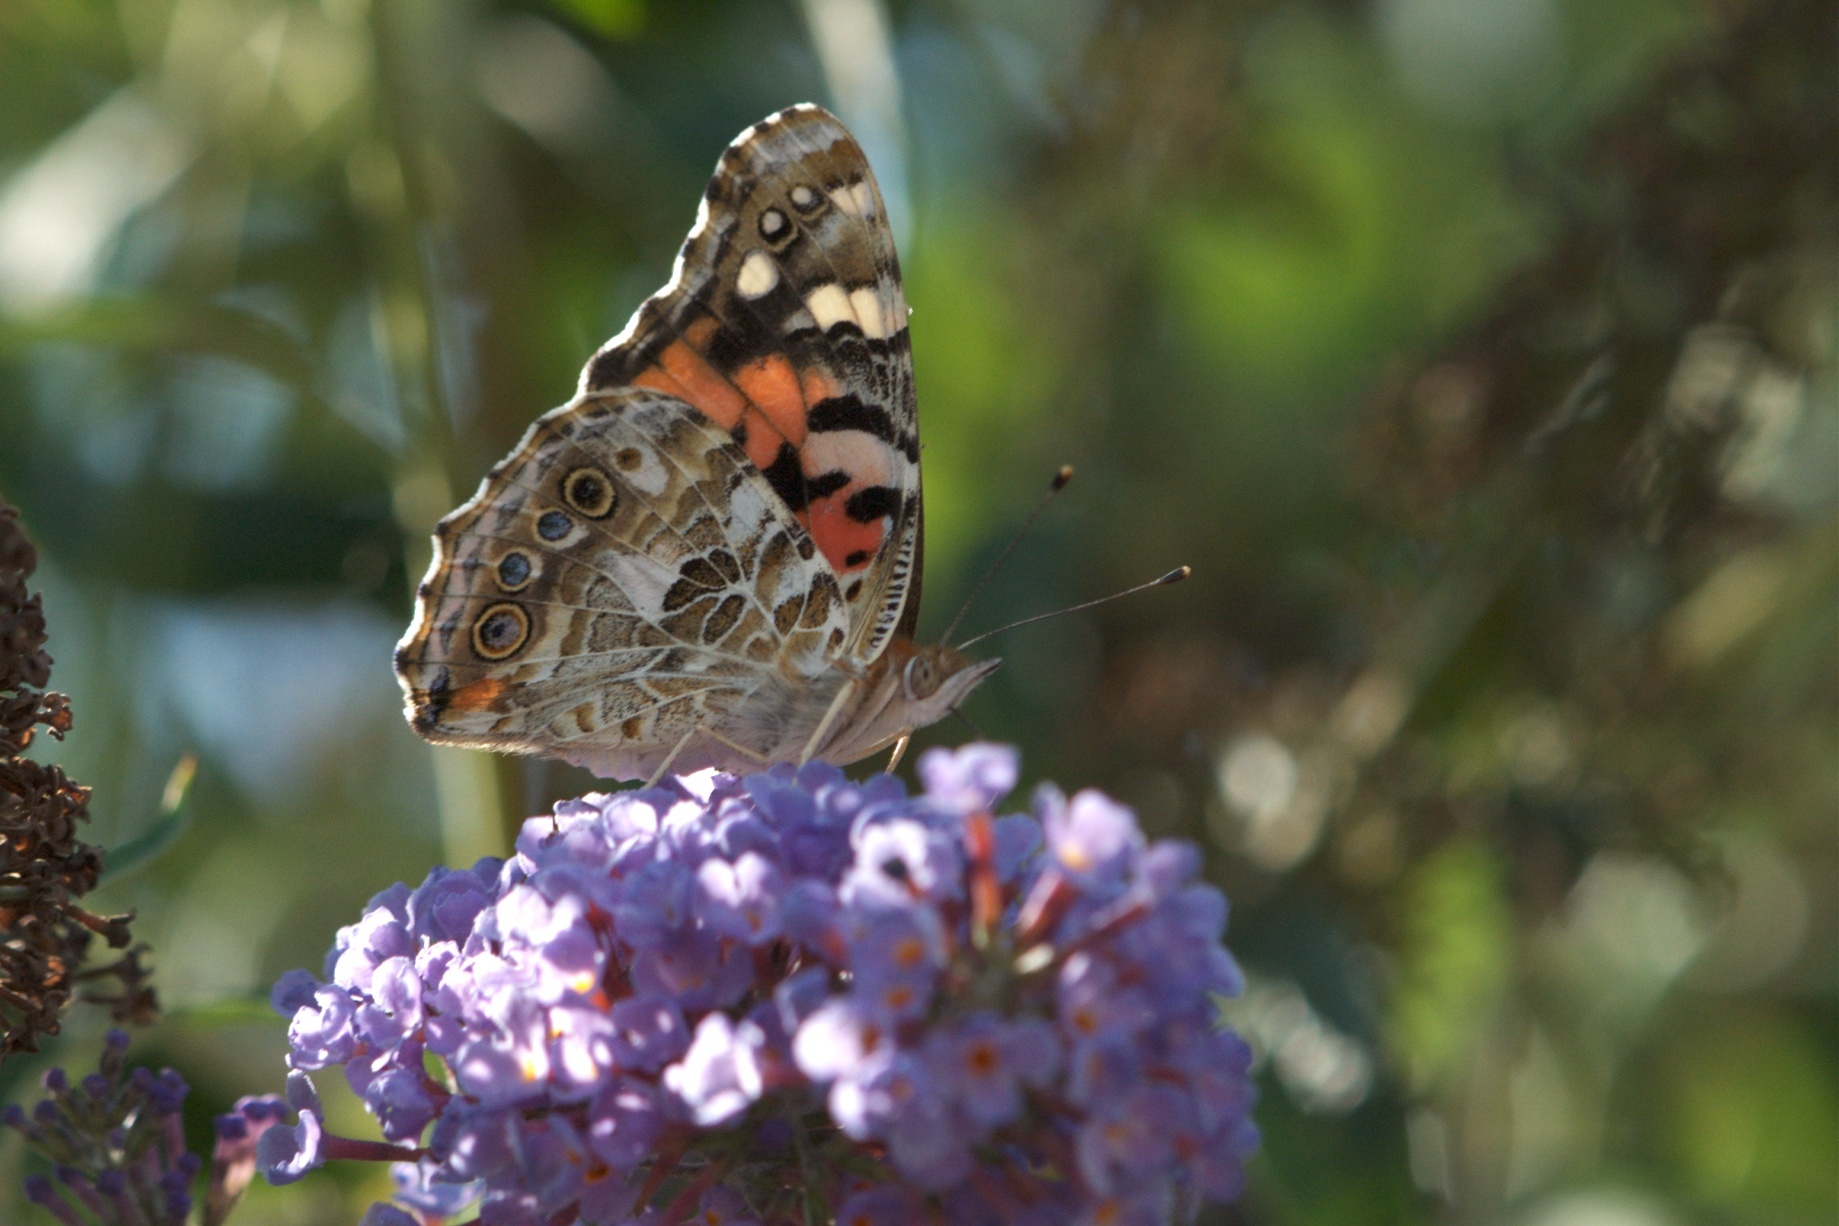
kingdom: Animalia
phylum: Arthropoda
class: Insecta
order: Lepidoptera
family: Nymphalidae
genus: Vanessa
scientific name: Vanessa cardui
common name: Painted lady
